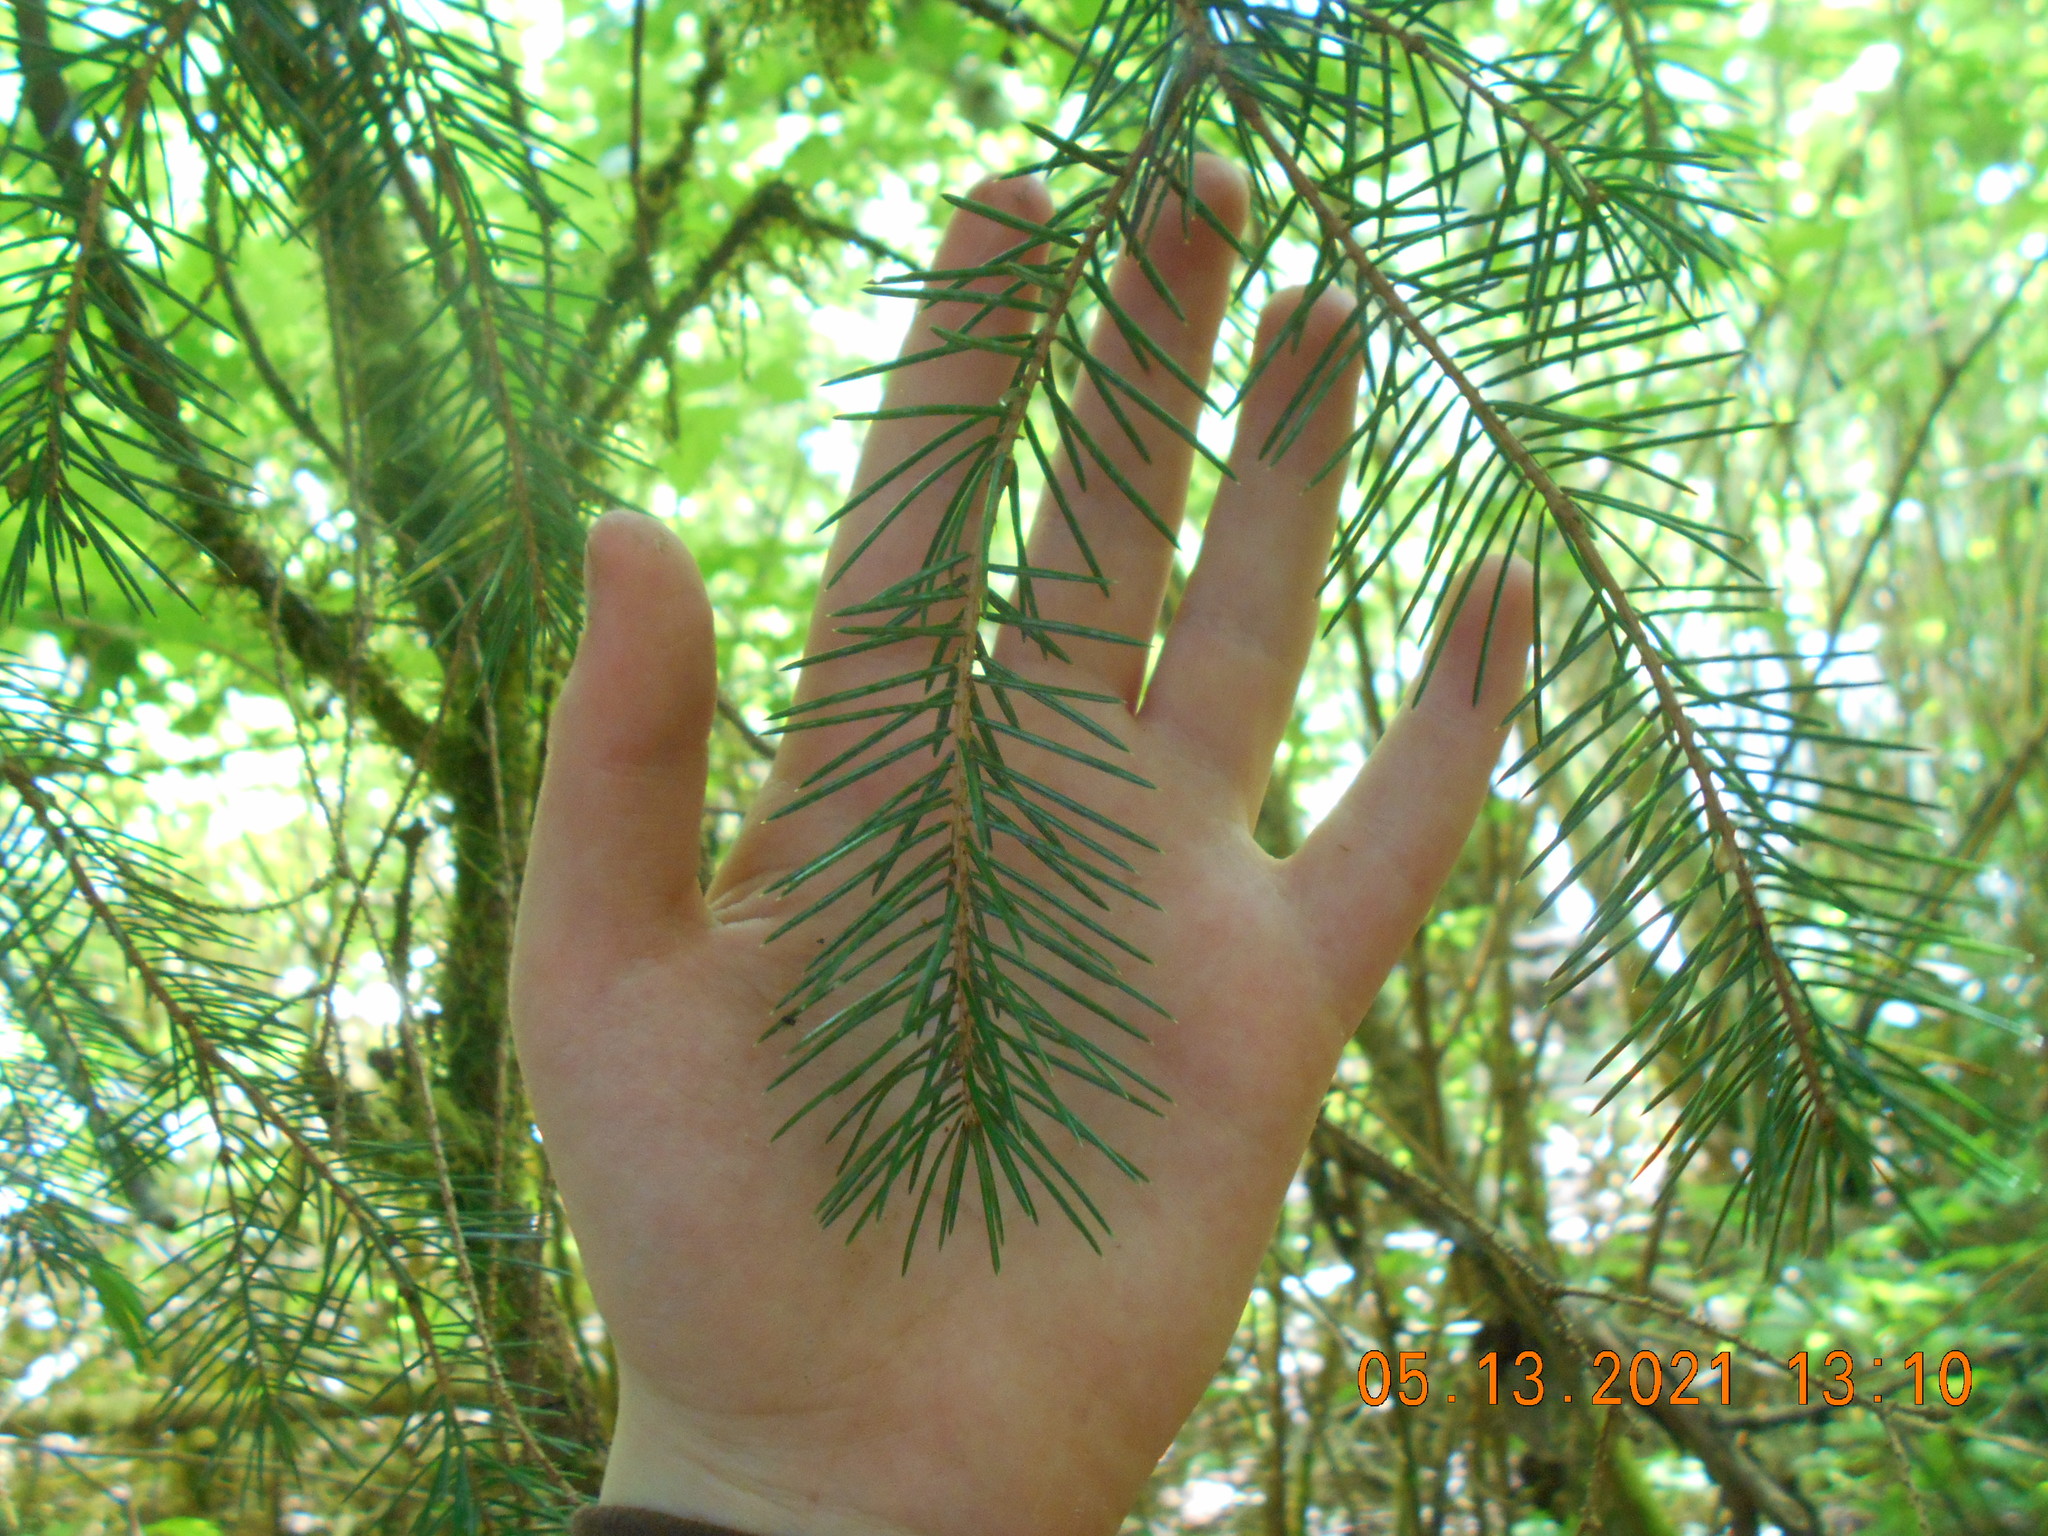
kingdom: Plantae
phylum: Tracheophyta
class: Pinopsida
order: Pinales
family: Pinaceae
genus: Picea
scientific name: Picea sitchensis
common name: Sitka spruce
